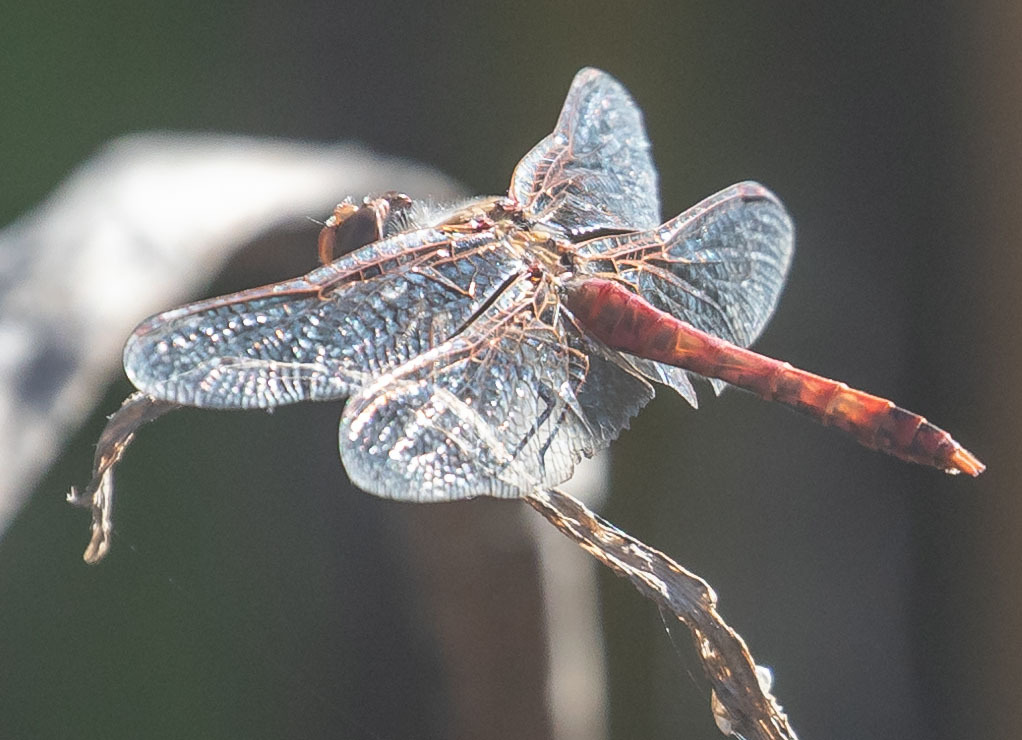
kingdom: Animalia
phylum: Arthropoda
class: Insecta
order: Odonata
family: Libellulidae
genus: Sympetrum
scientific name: Sympetrum corruptum
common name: Variegated meadowhawk
